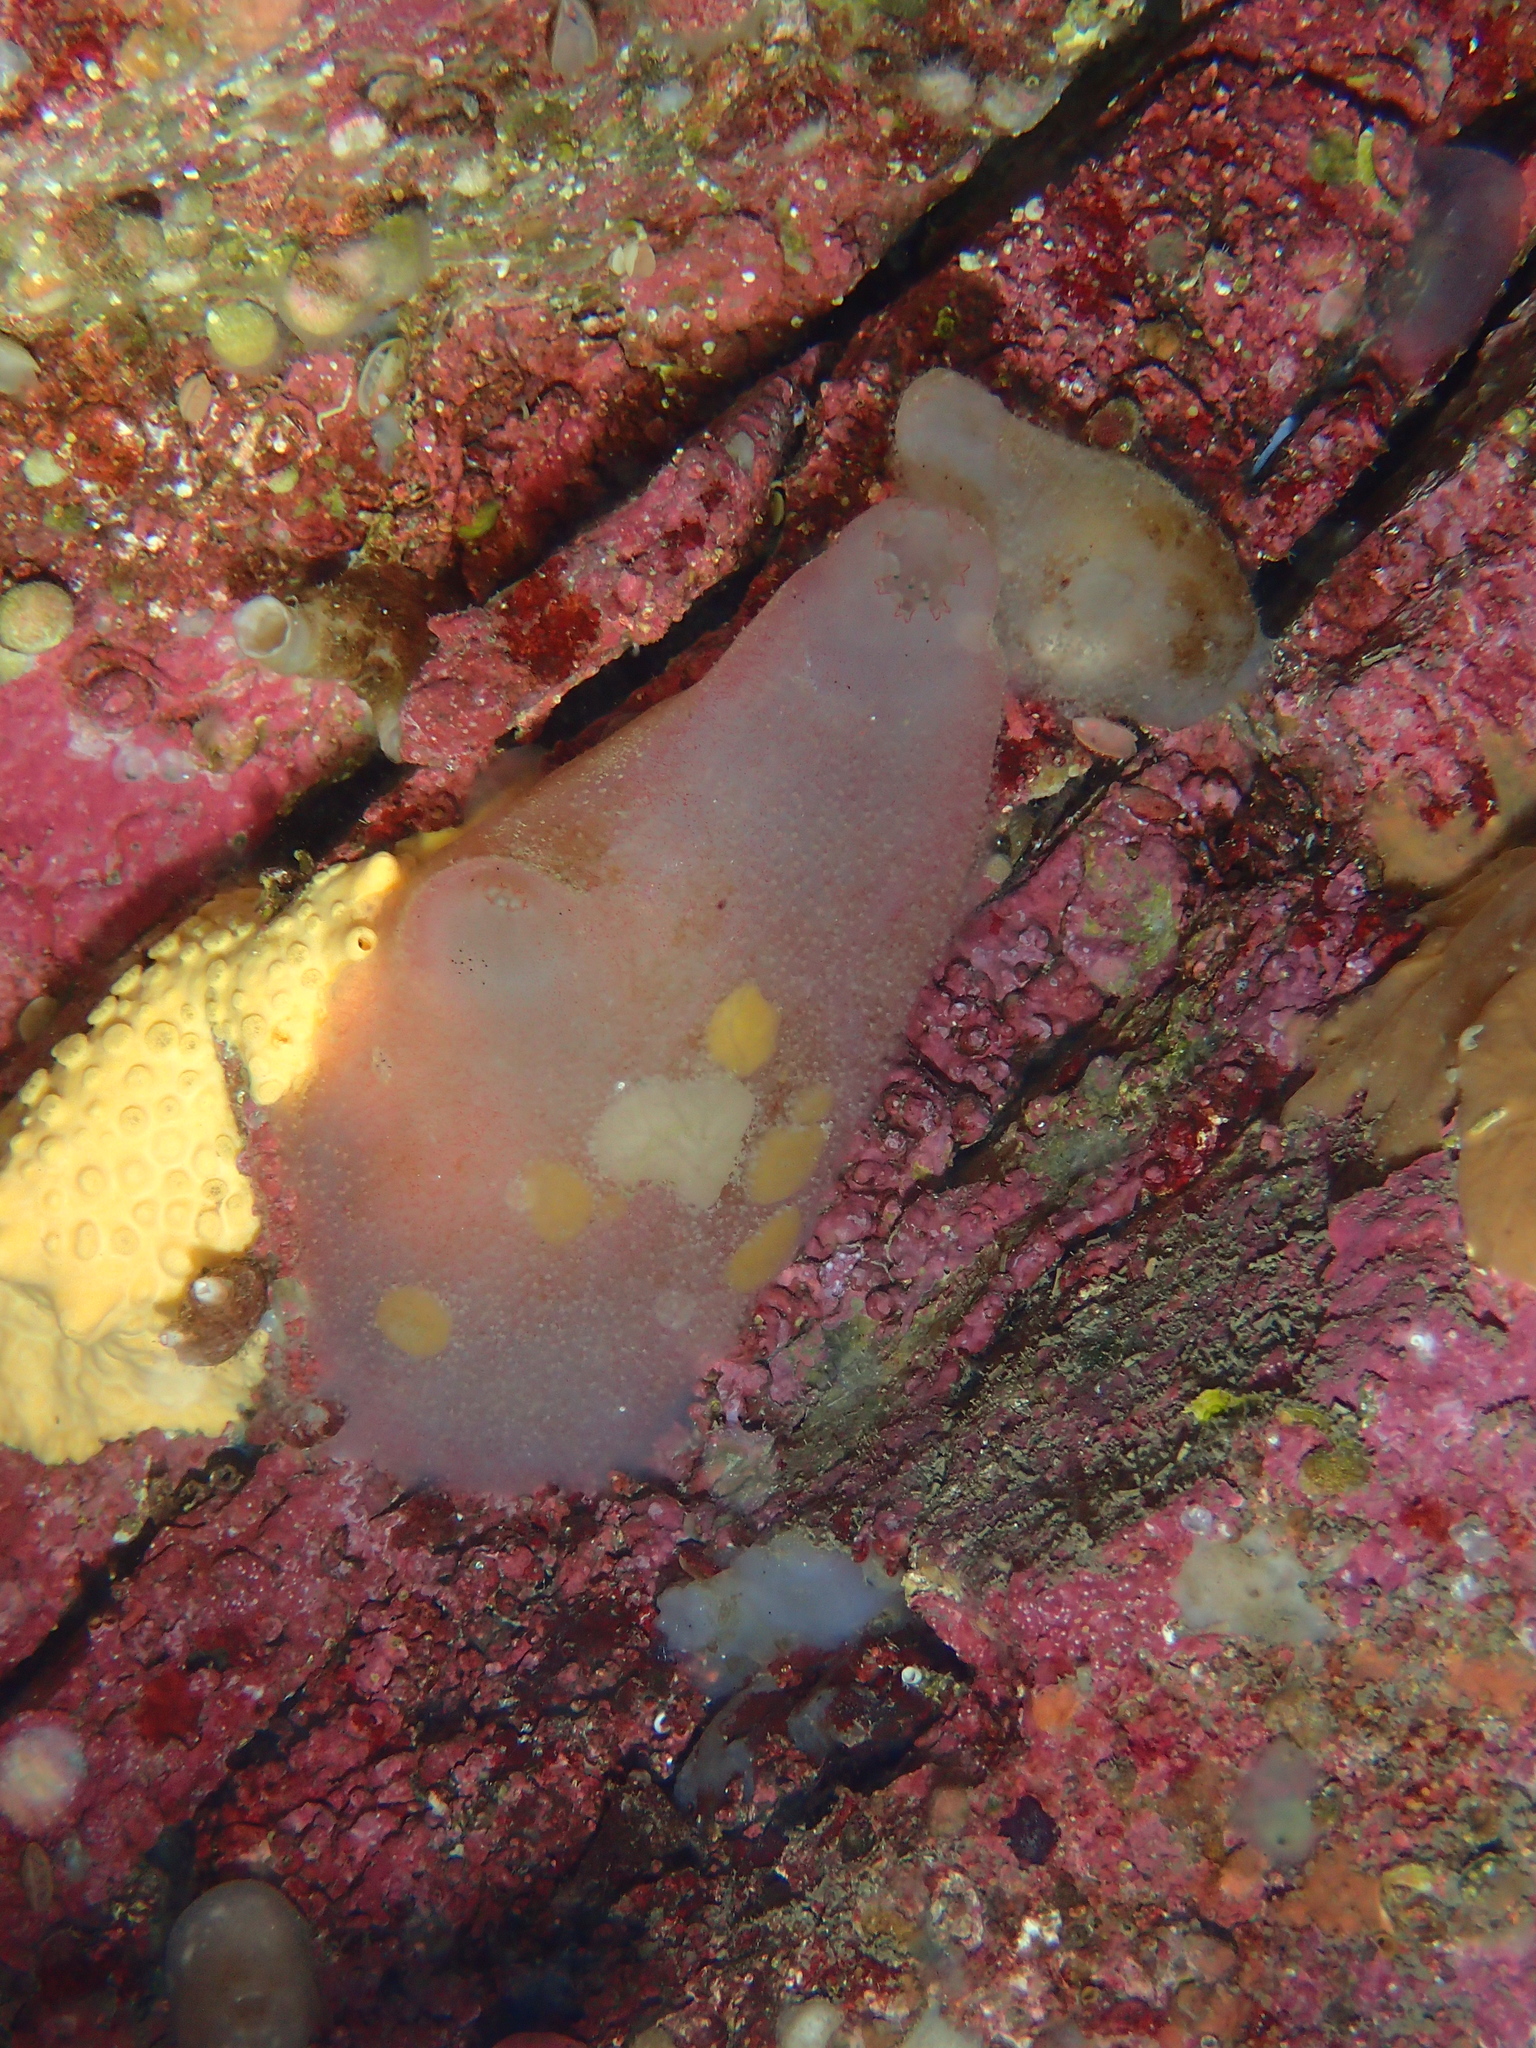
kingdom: Animalia
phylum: Chordata
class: Ascidiacea
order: Phlebobranchia
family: Ascidiidae
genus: Ascidia
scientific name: Ascidia mentula
